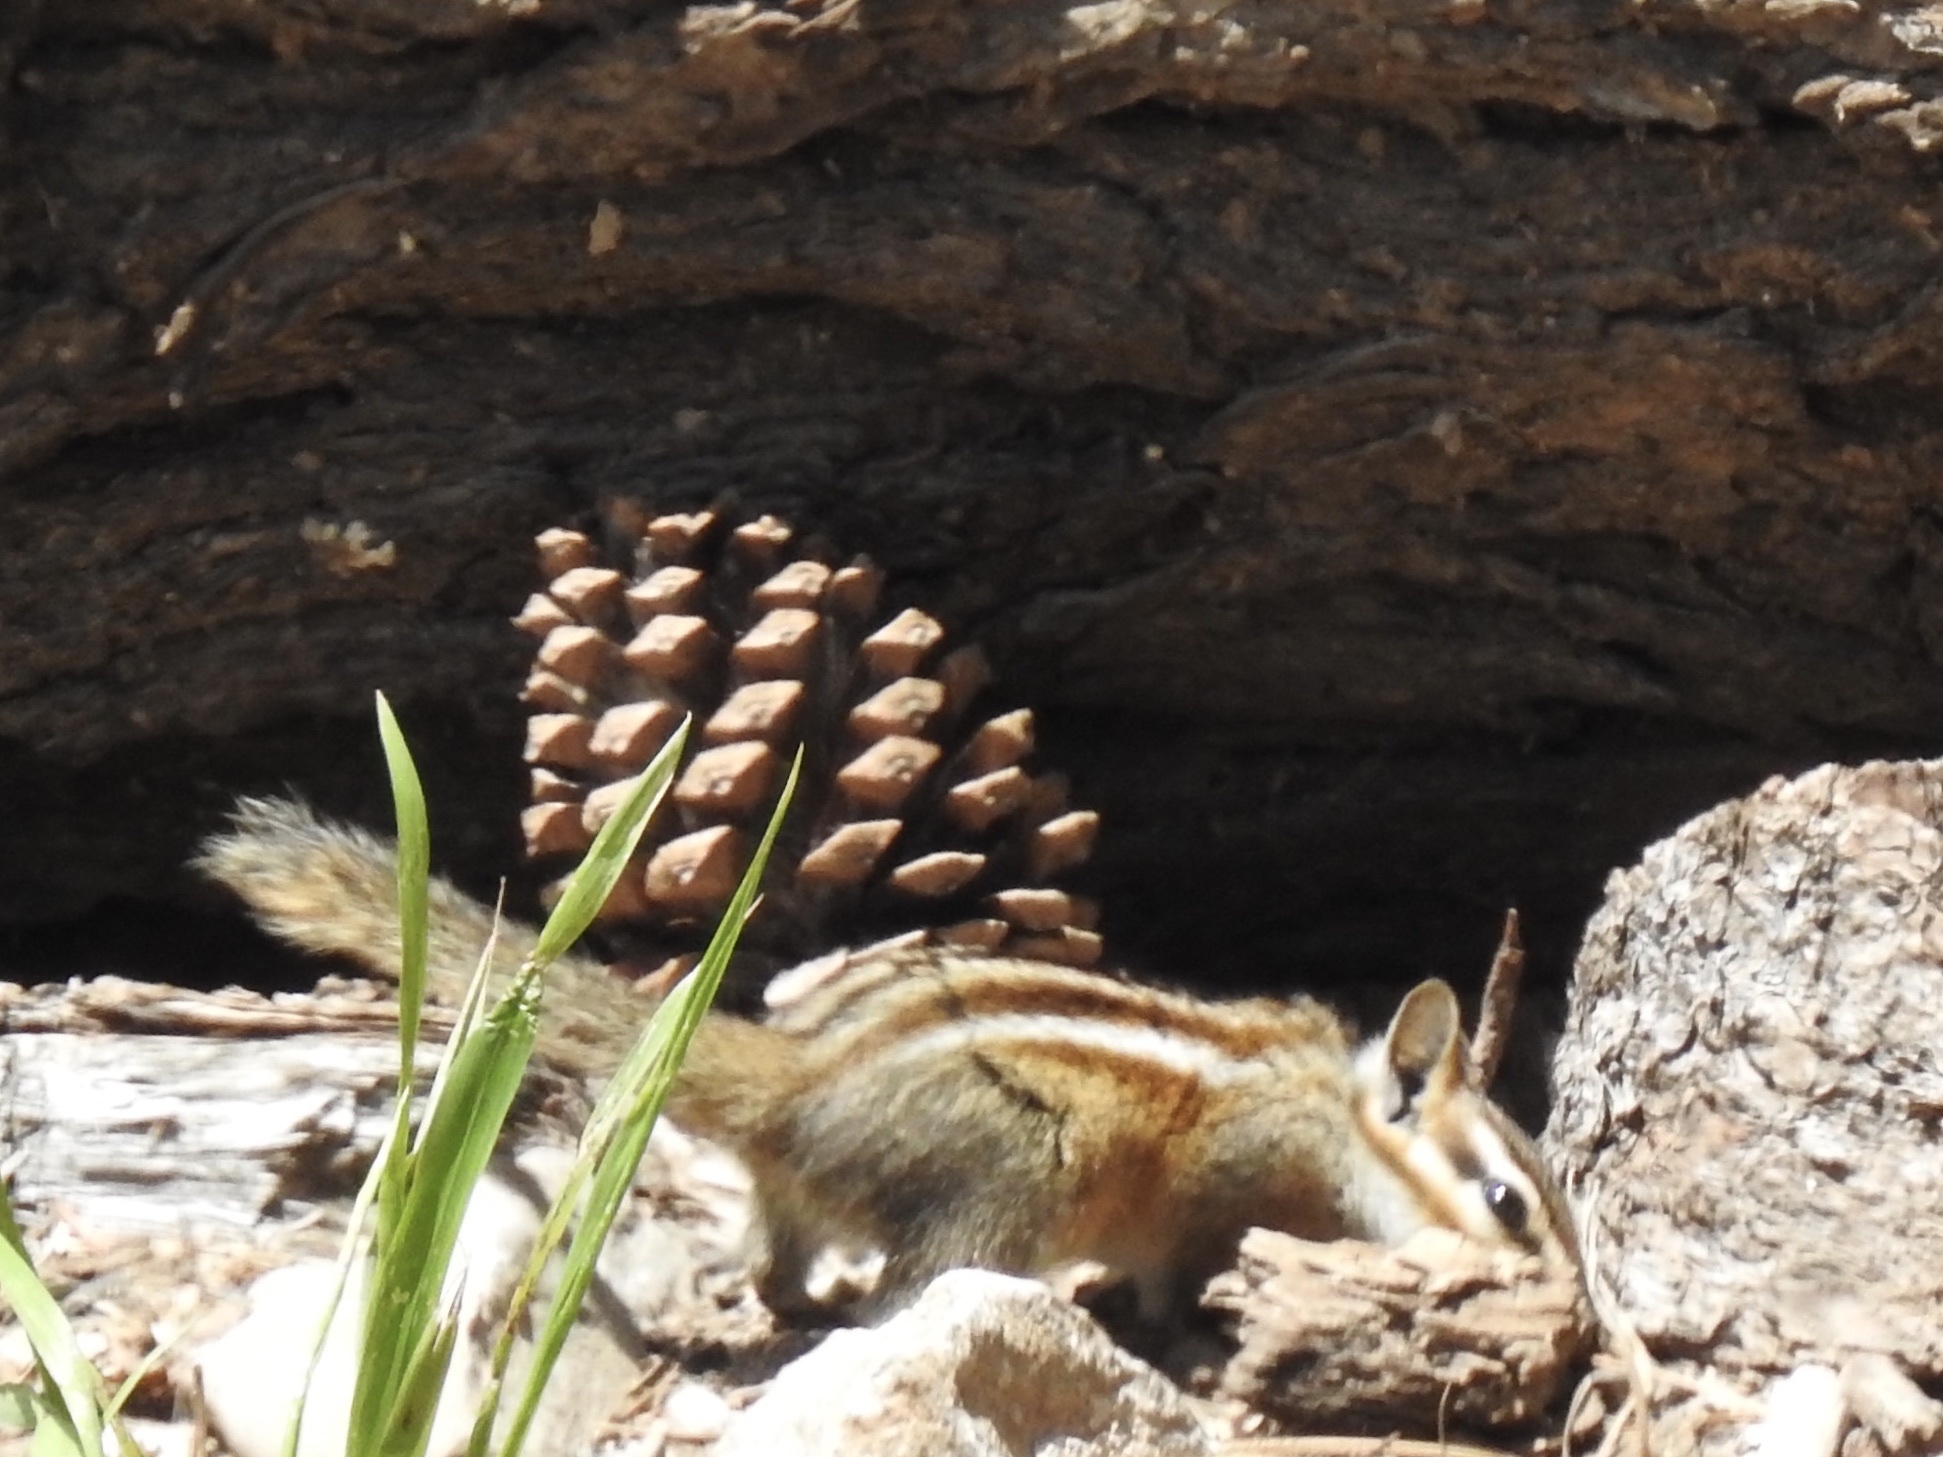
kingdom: Animalia
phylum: Chordata
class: Mammalia
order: Rodentia
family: Sciuridae
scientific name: Sciuridae
